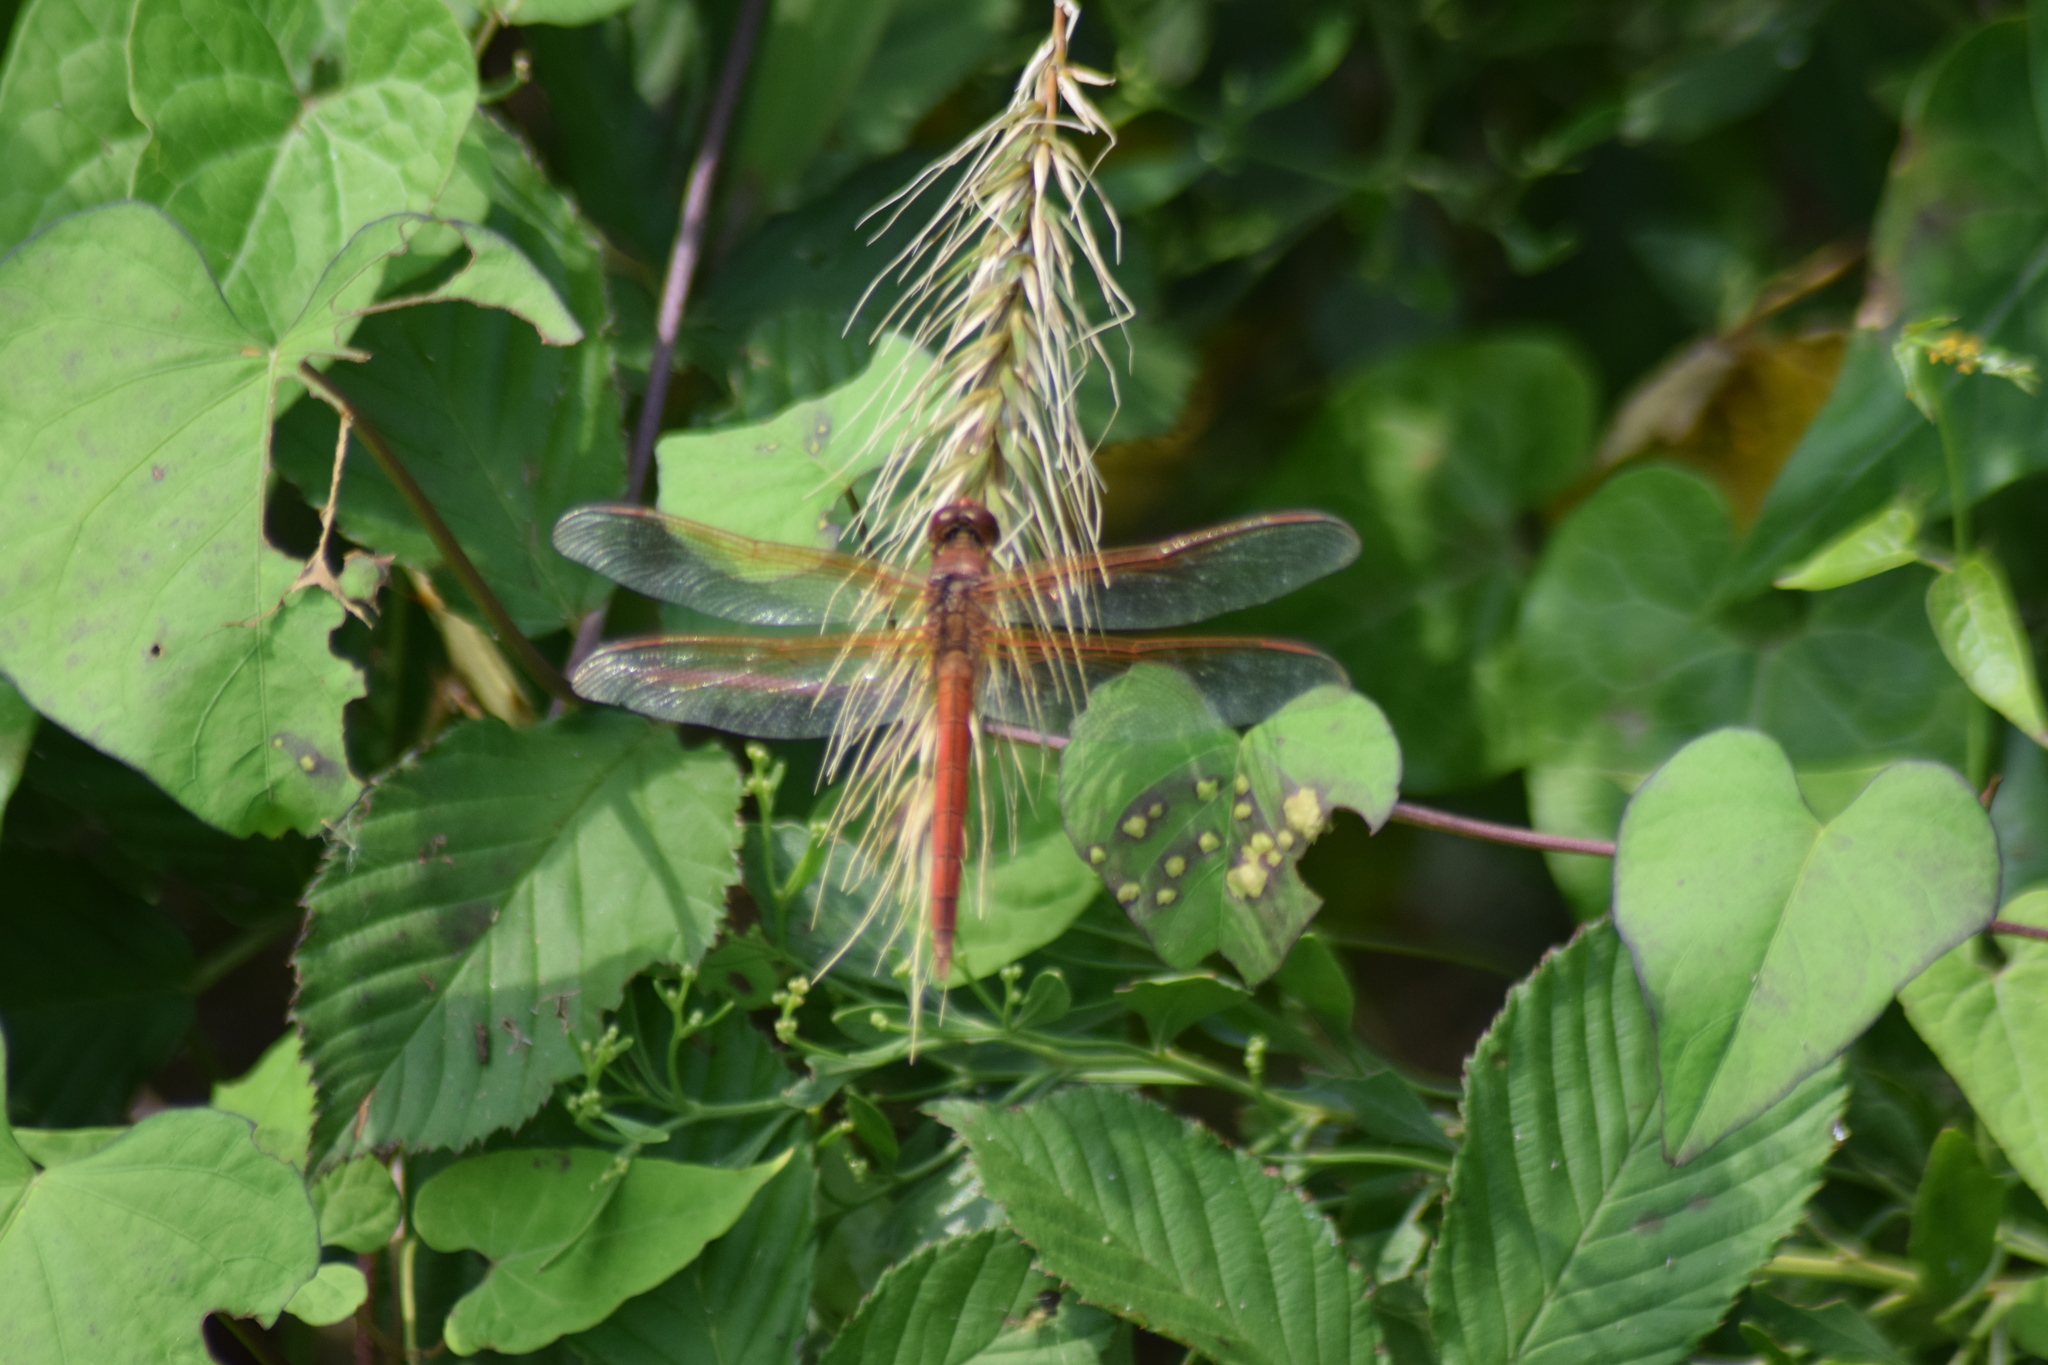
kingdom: Animalia
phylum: Arthropoda
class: Insecta
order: Odonata
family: Libellulidae
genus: Libellula
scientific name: Libellula needhami
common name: Needham's skimmer
